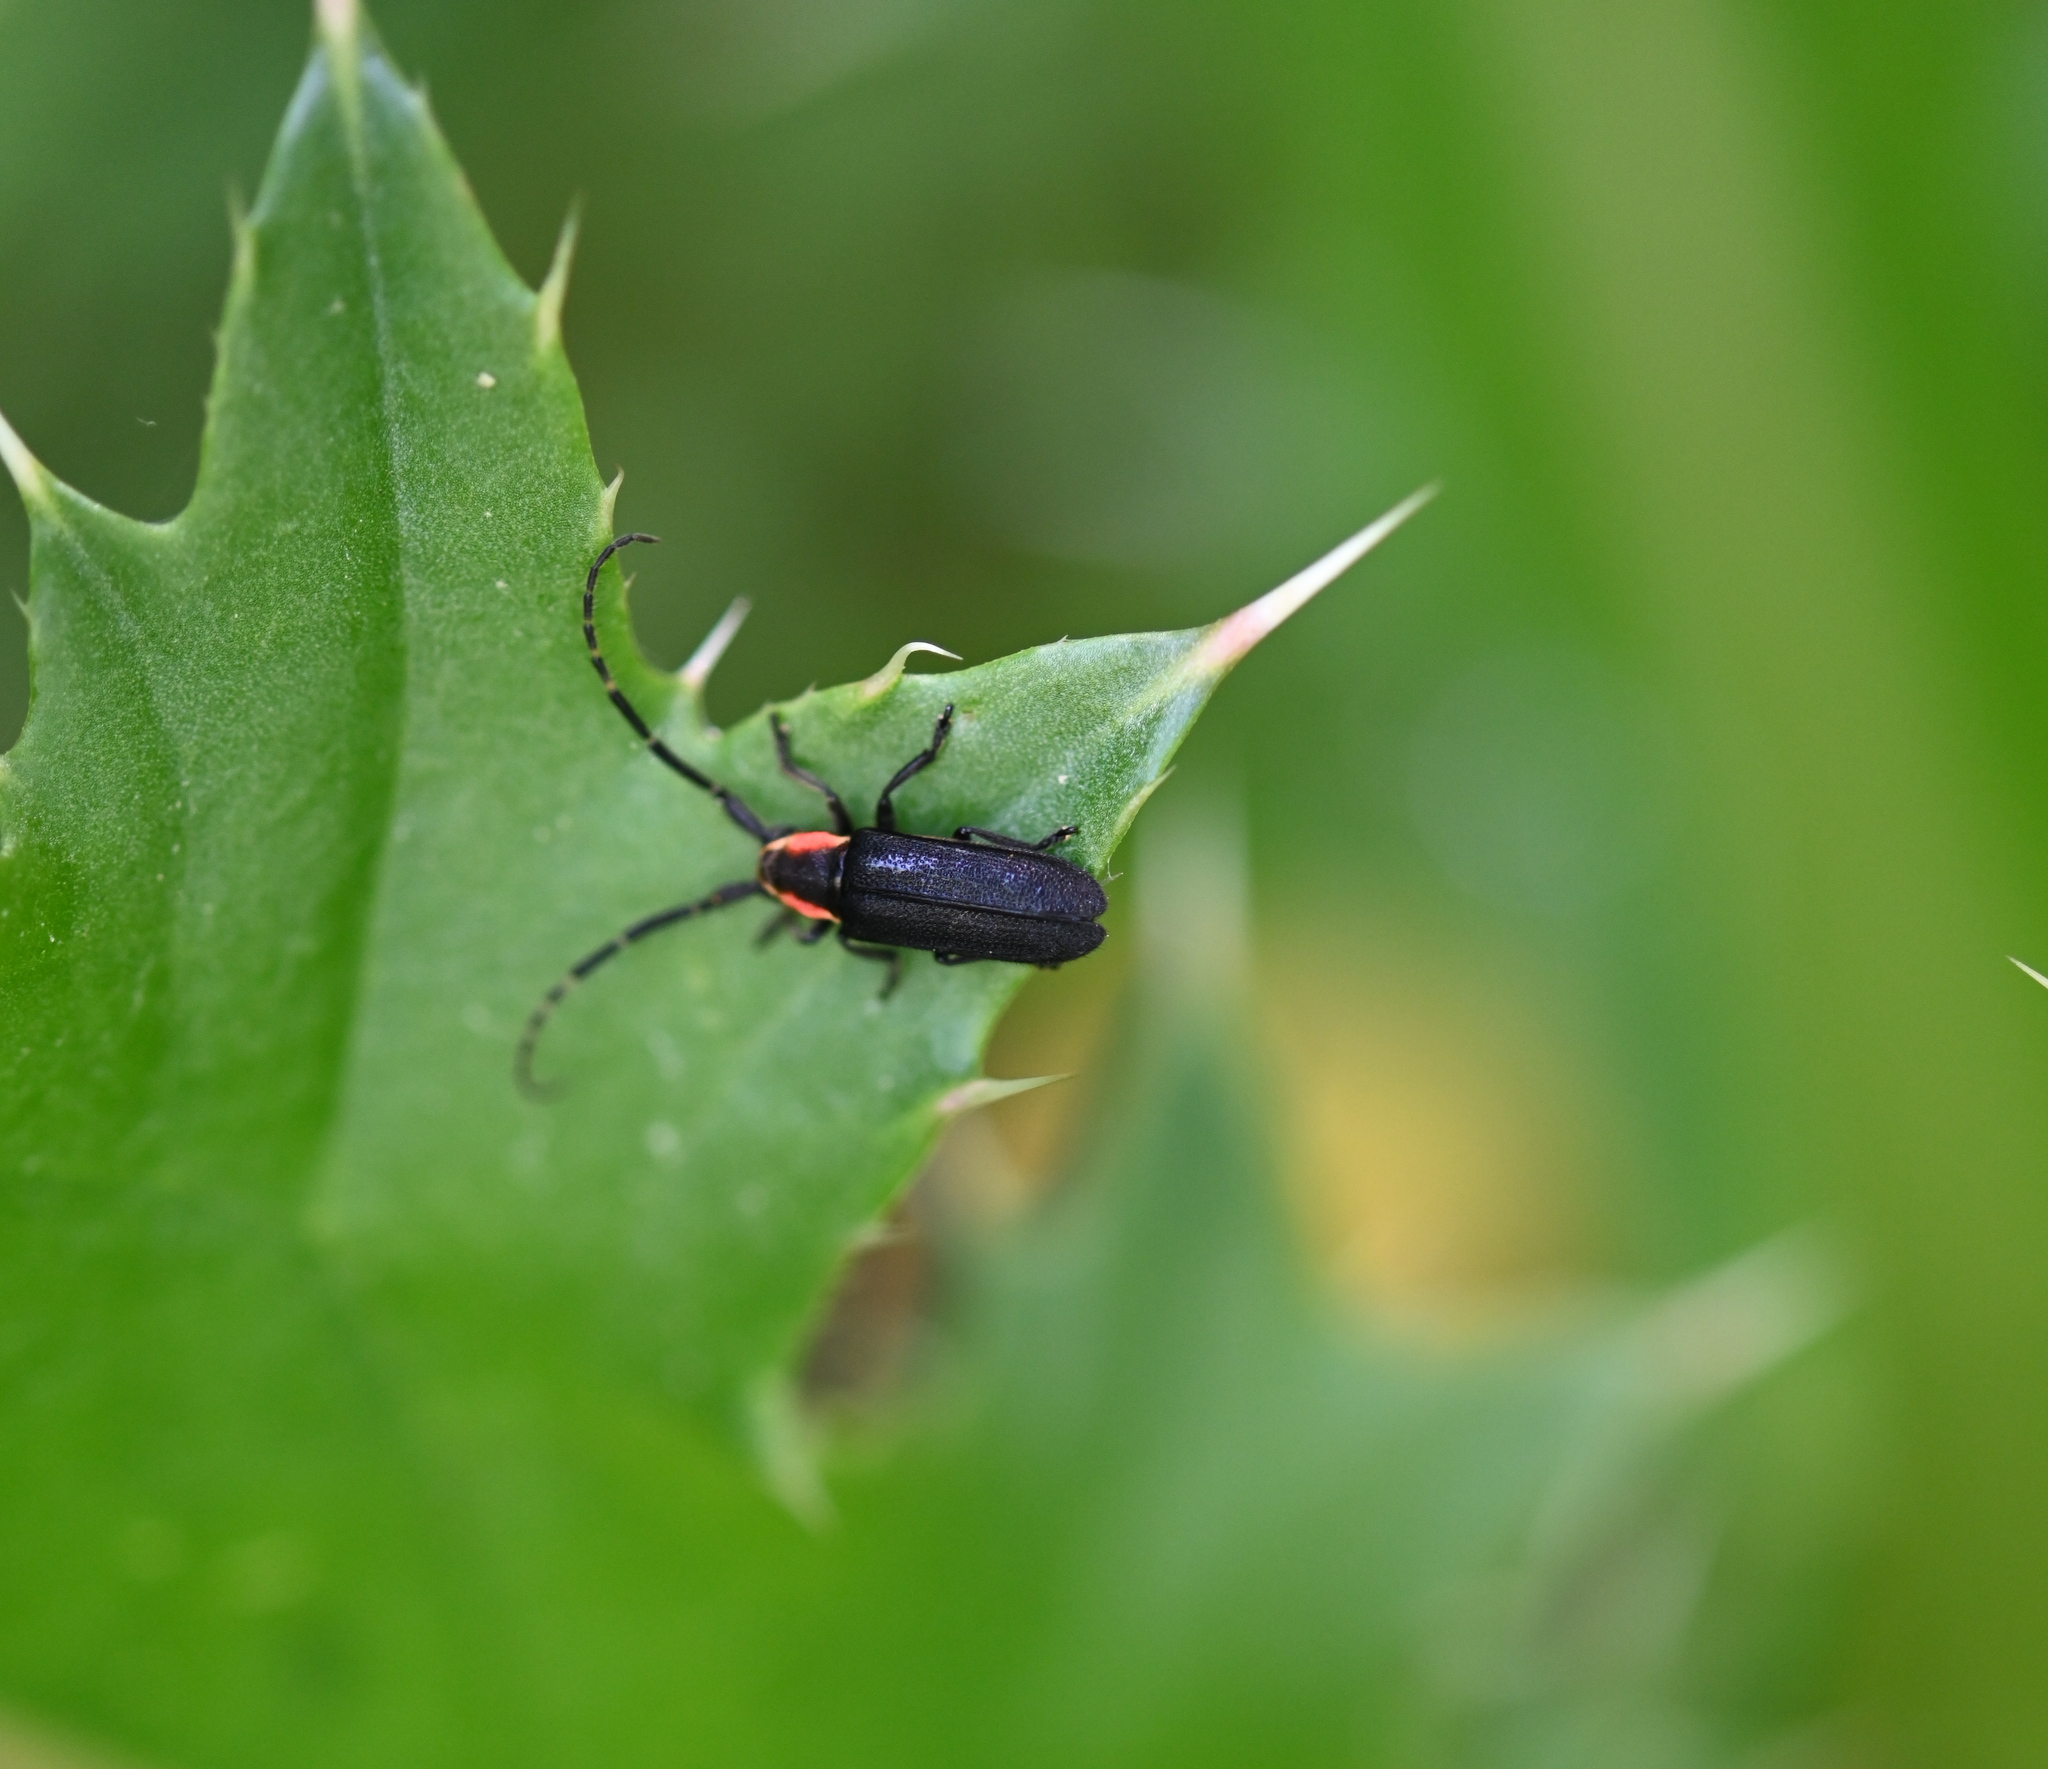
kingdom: Animalia
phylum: Arthropoda
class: Insecta
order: Coleoptera
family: Cerambycidae
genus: Hemierana
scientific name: Hemierana marginata
